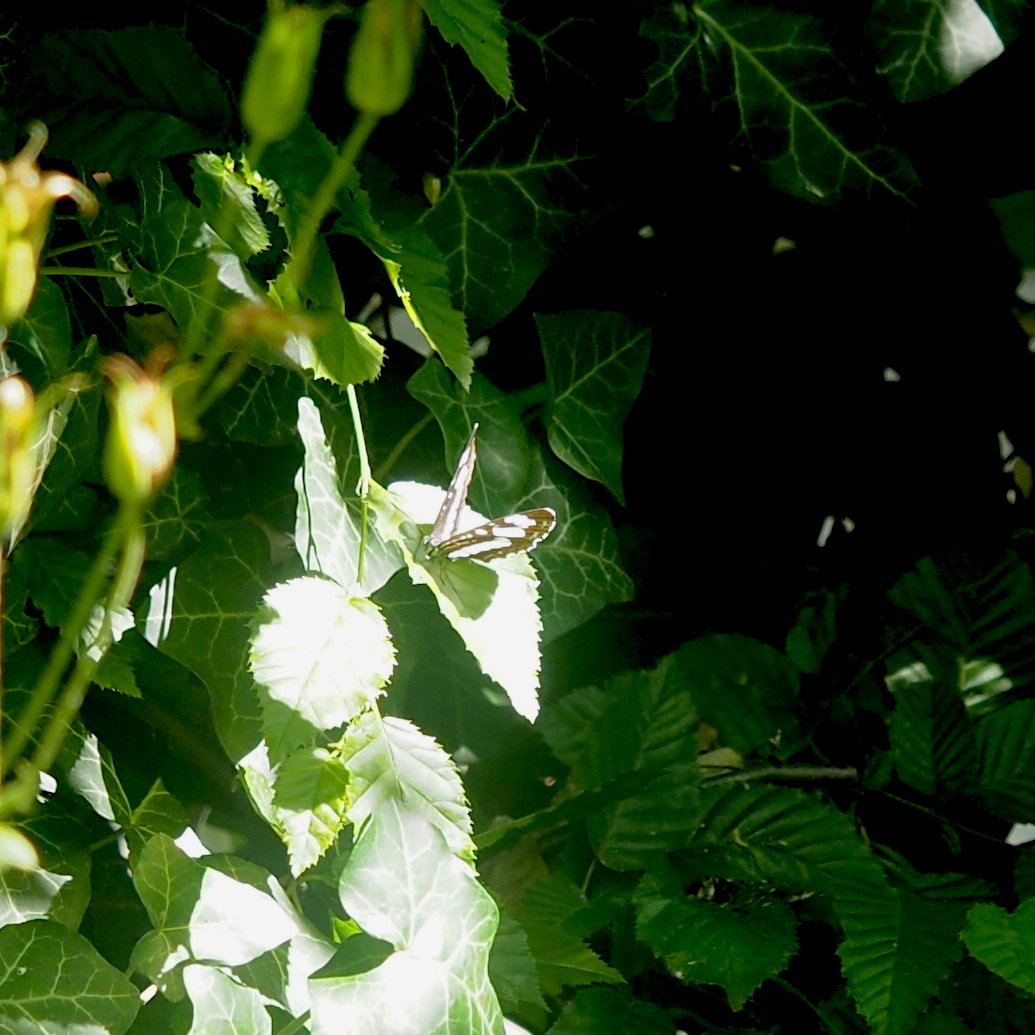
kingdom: Animalia
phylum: Arthropoda
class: Insecta
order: Lepidoptera
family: Nymphalidae
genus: Neptis
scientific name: Neptis rivularis
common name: Hungarian glider
